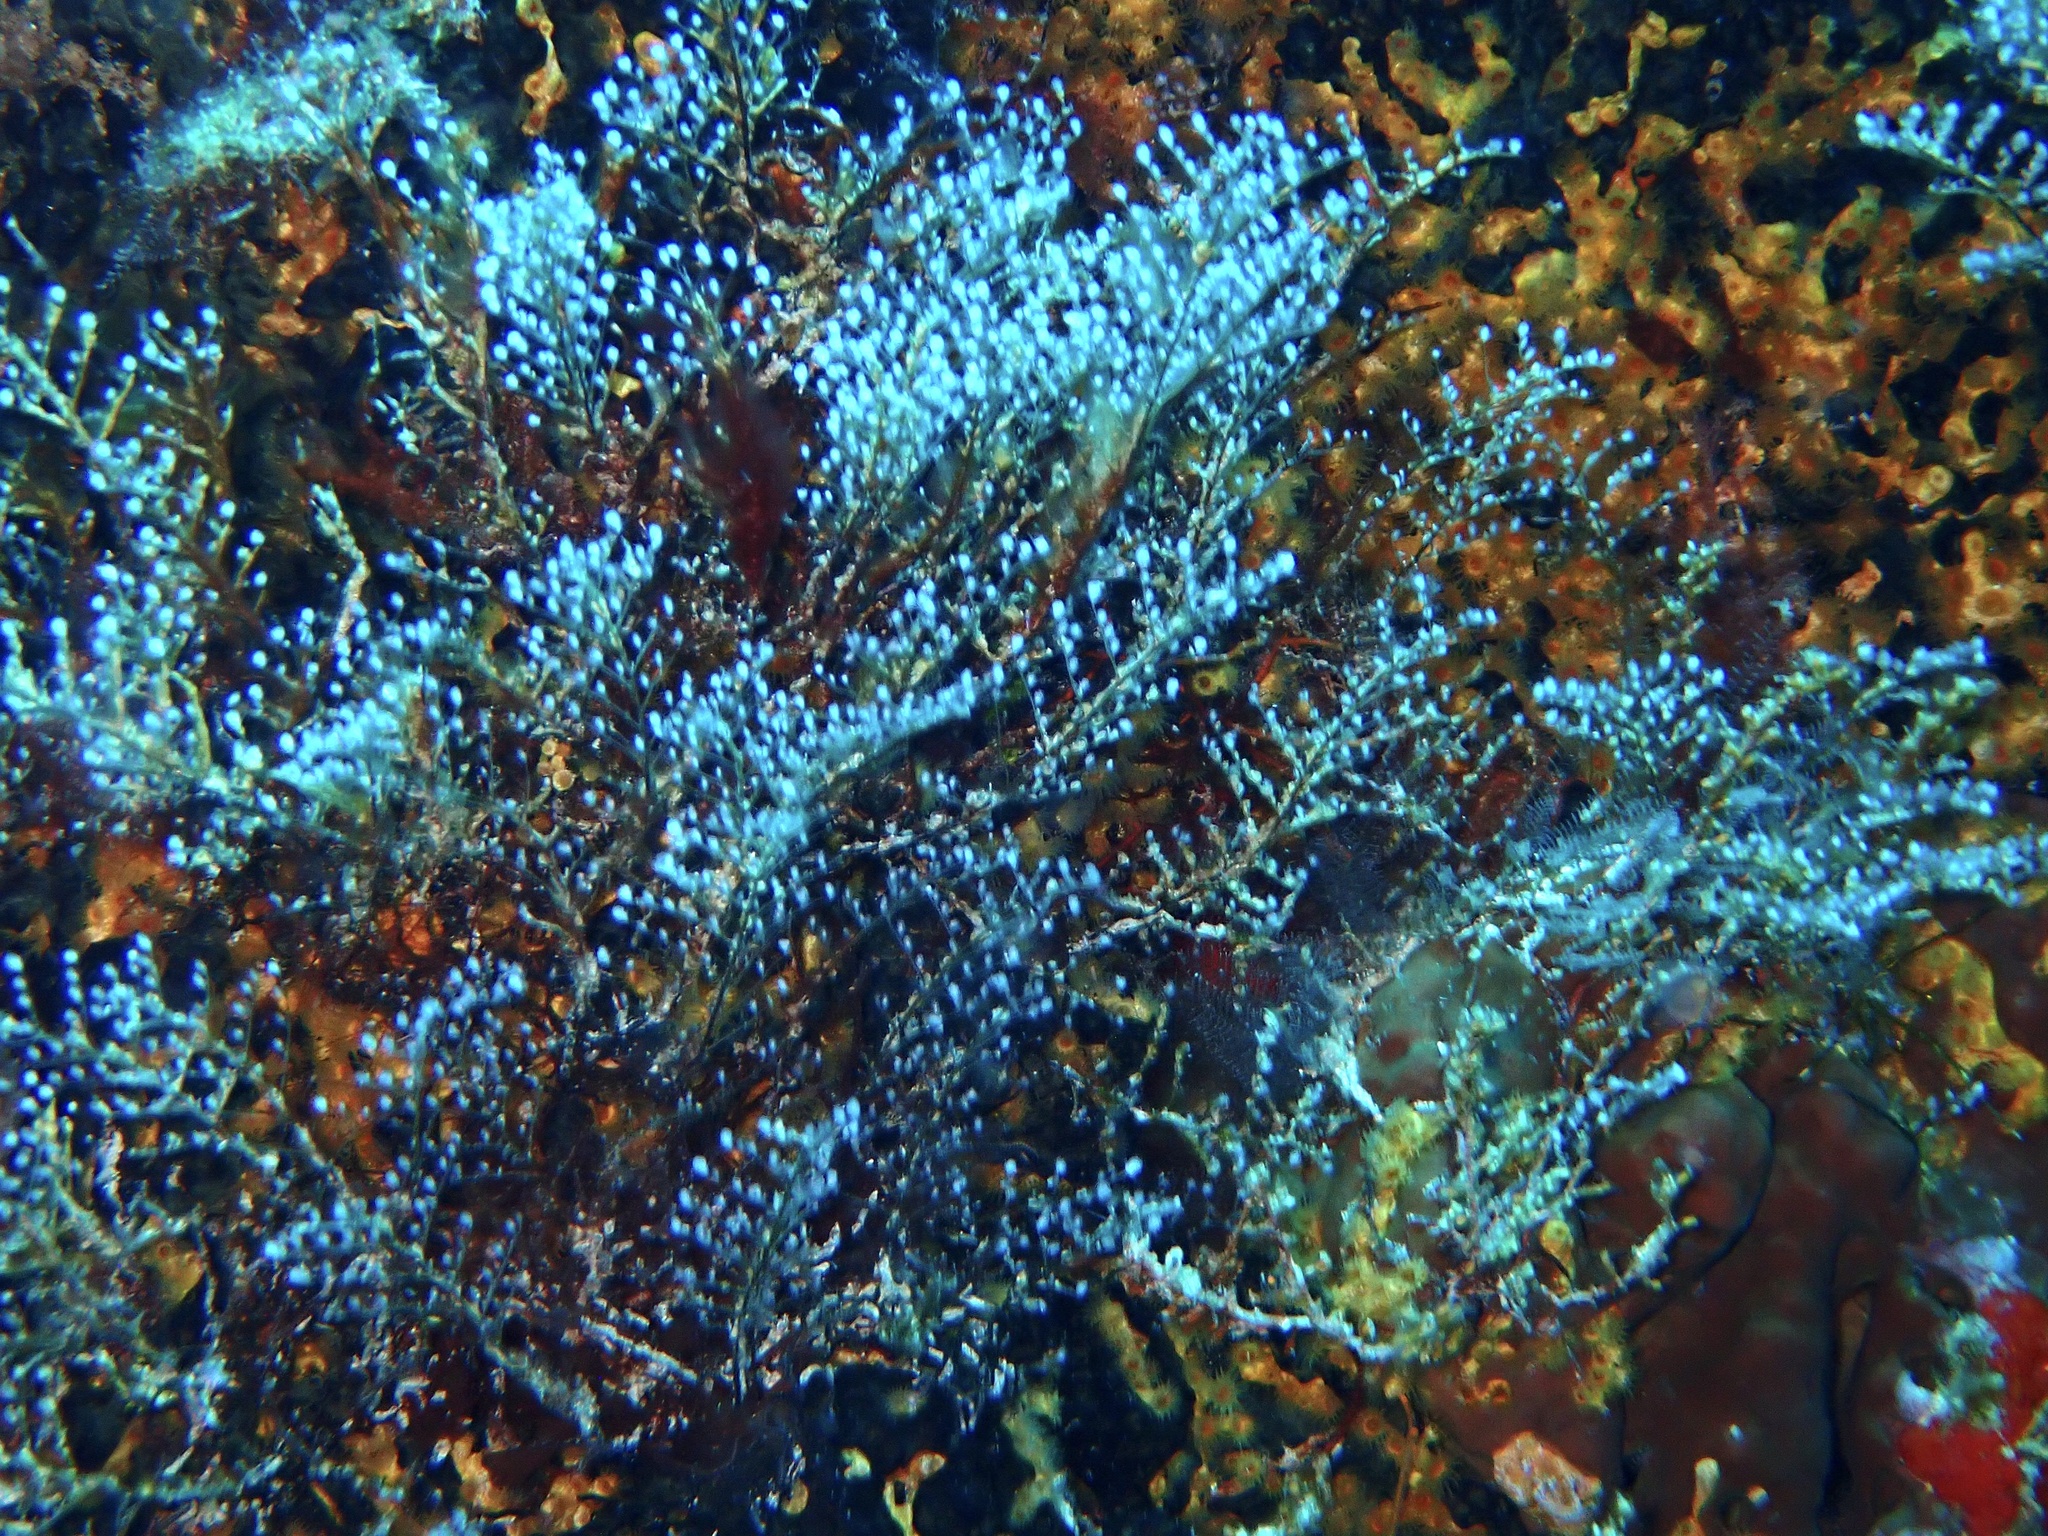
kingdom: Animalia
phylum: Cnidaria
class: Hydrozoa
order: Anthoathecata
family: Pennariidae
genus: Pennaria
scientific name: Pennaria disticha
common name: Feather hydroid
